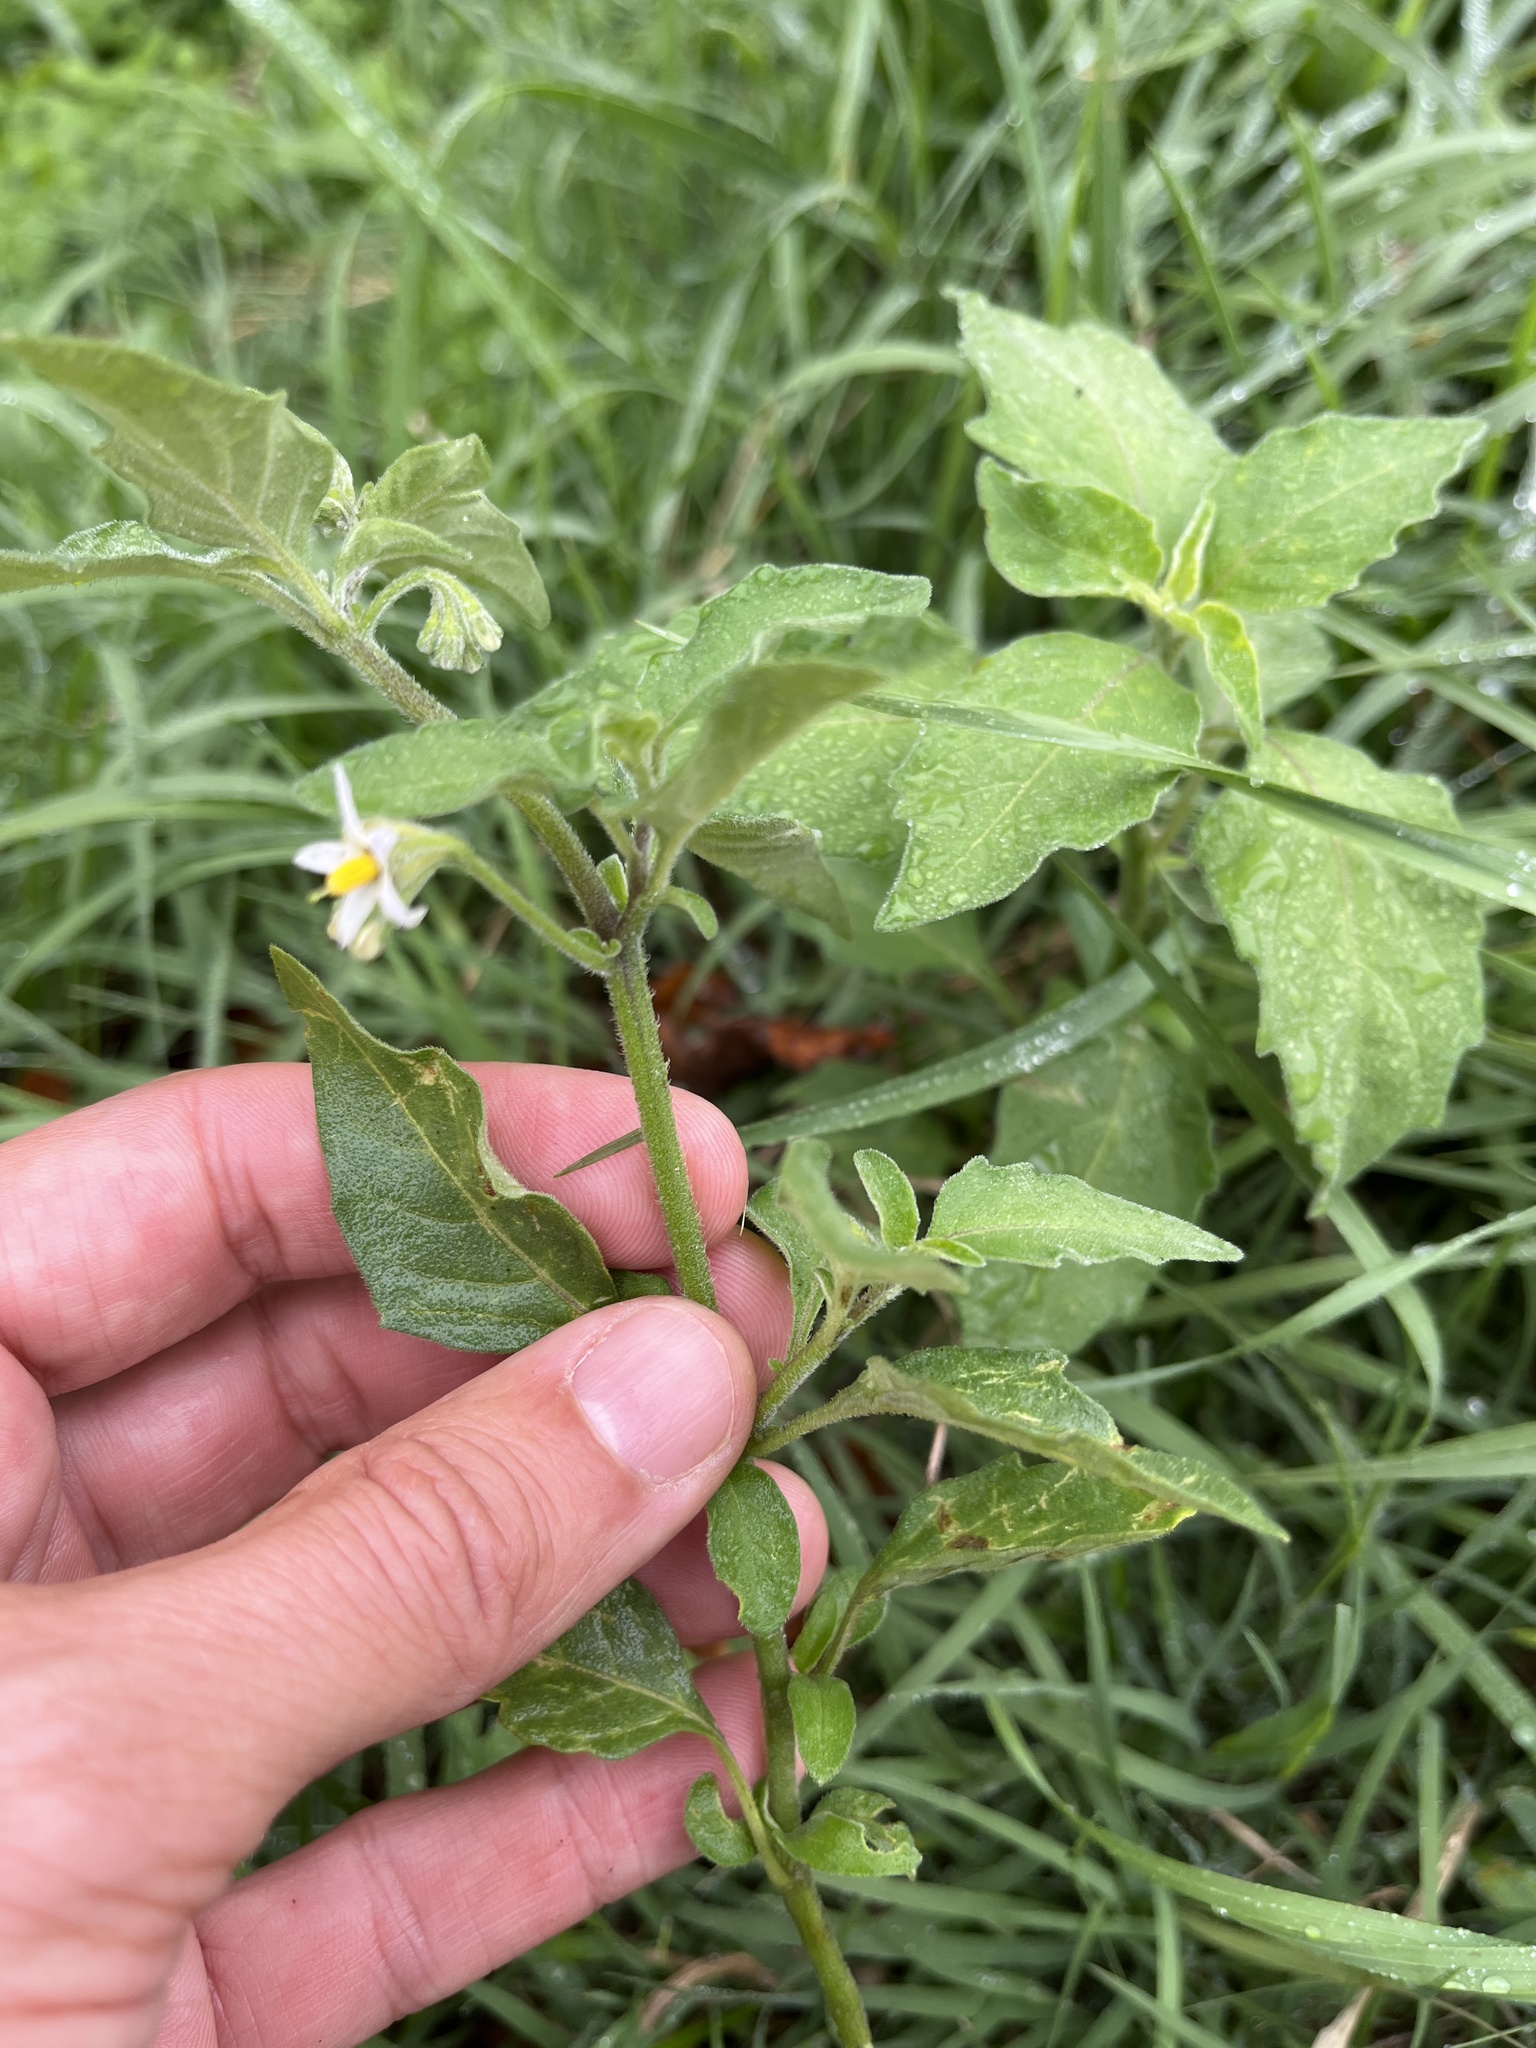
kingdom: Plantae
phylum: Tracheophyta
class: Magnoliopsida
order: Solanales
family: Solanaceae
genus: Solanum
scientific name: Solanum chenopodioides
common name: Tall nightshade
